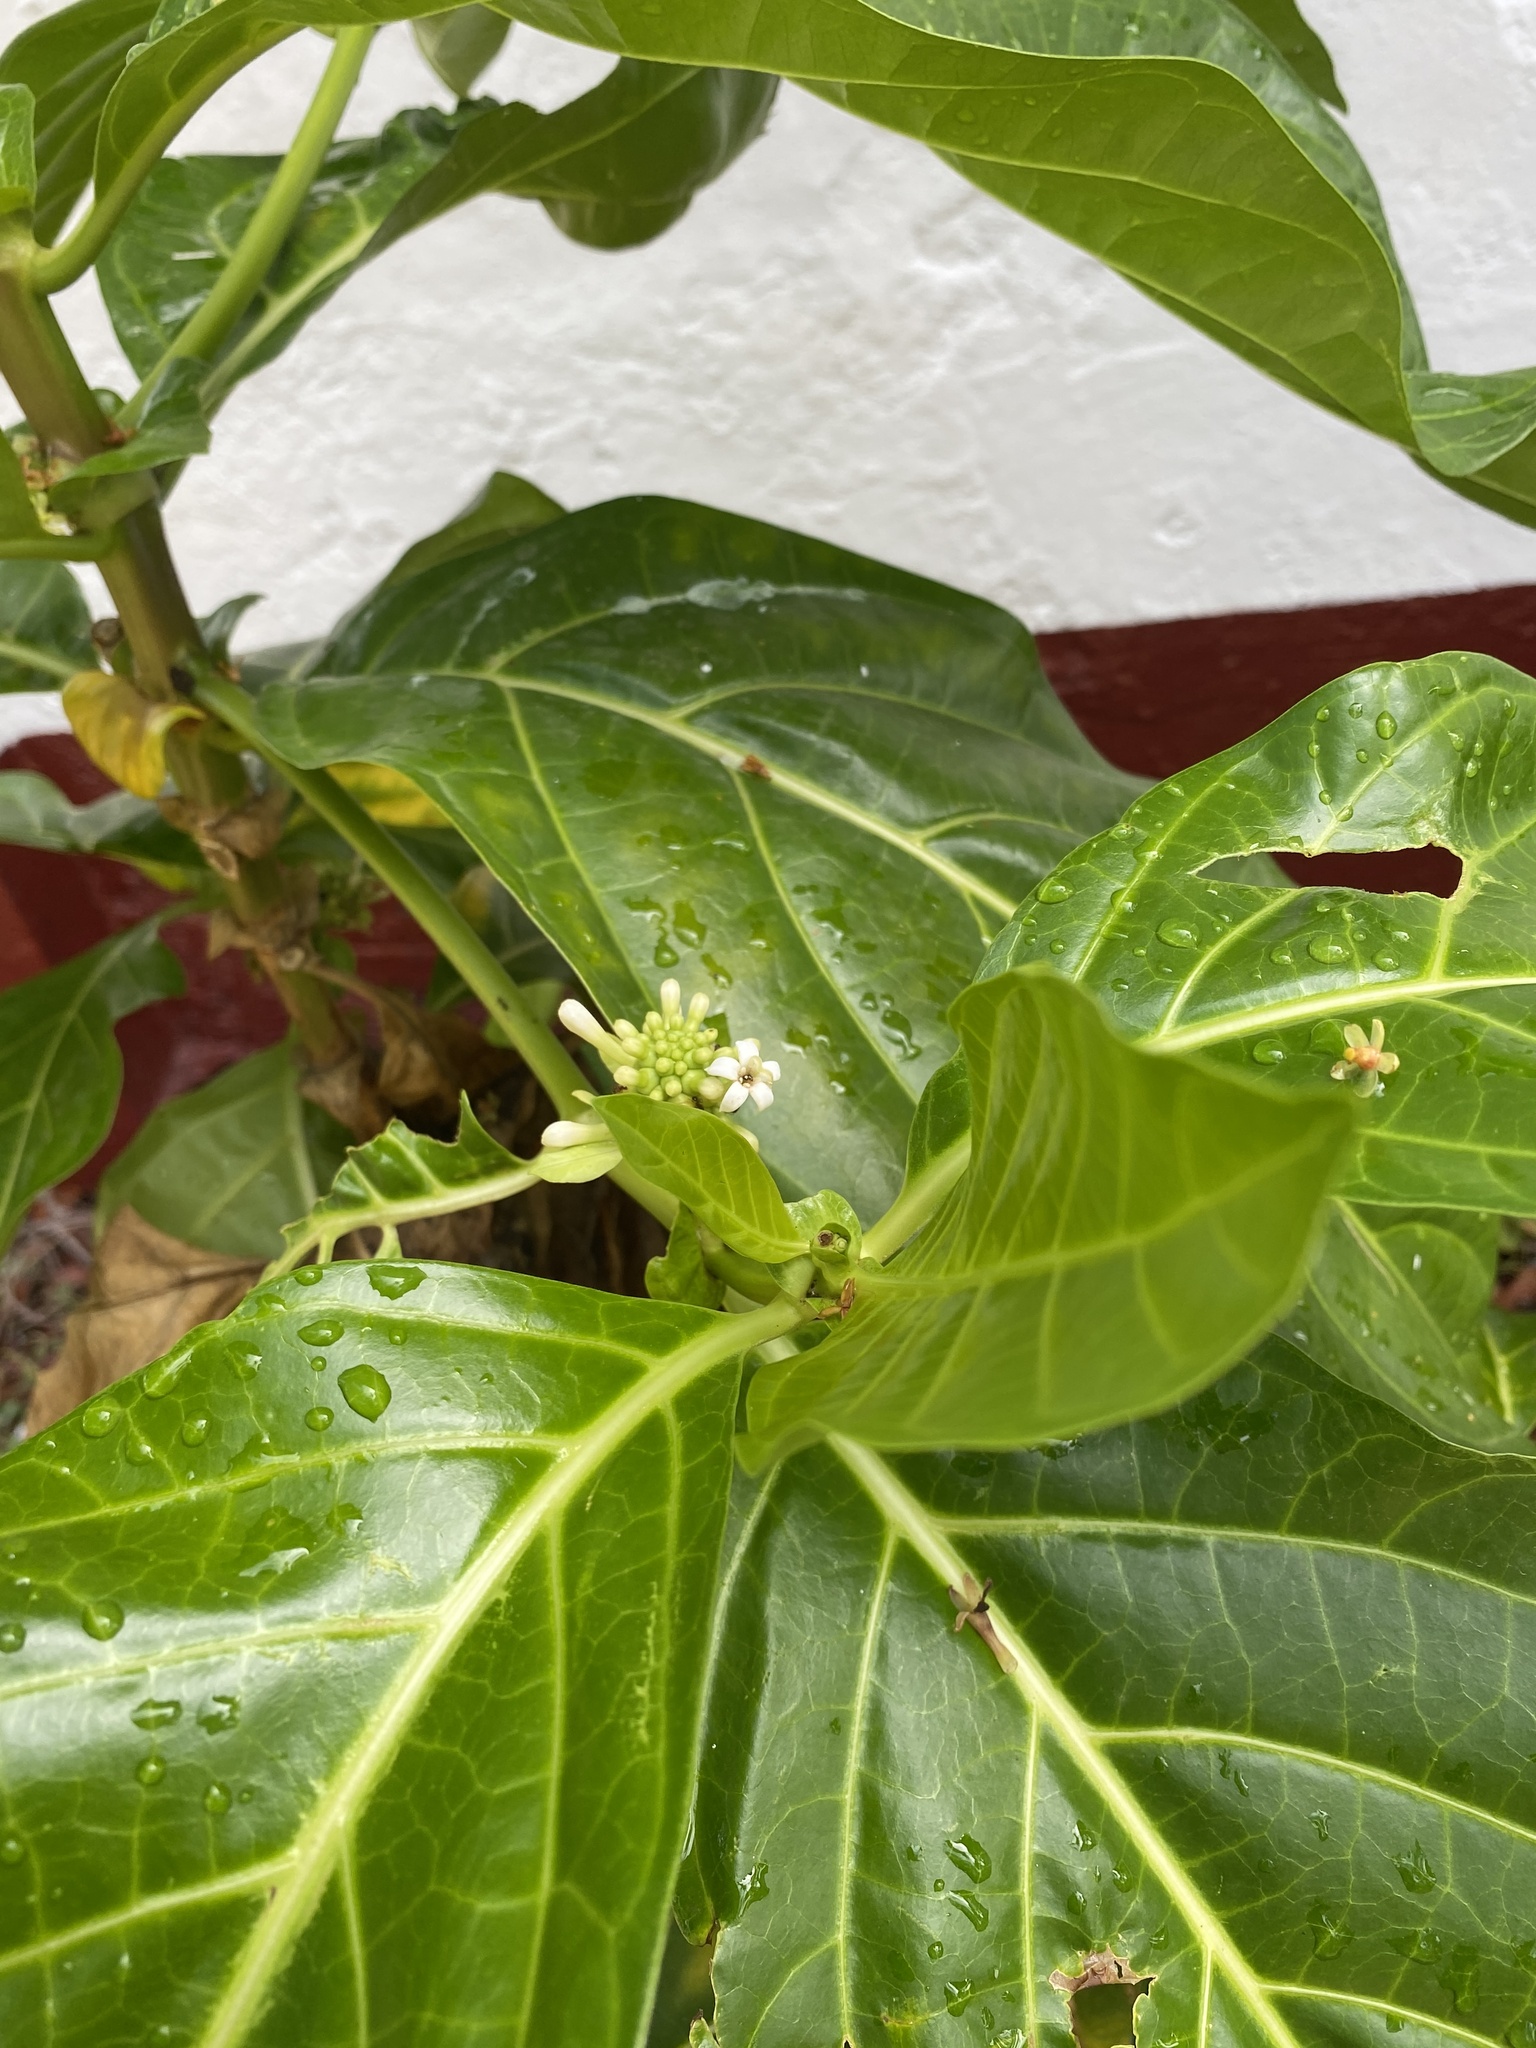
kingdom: Plantae
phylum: Tracheophyta
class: Magnoliopsida
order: Gentianales
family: Rubiaceae
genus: Morinda
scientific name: Morinda citrifolia
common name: Indian-mulberry
